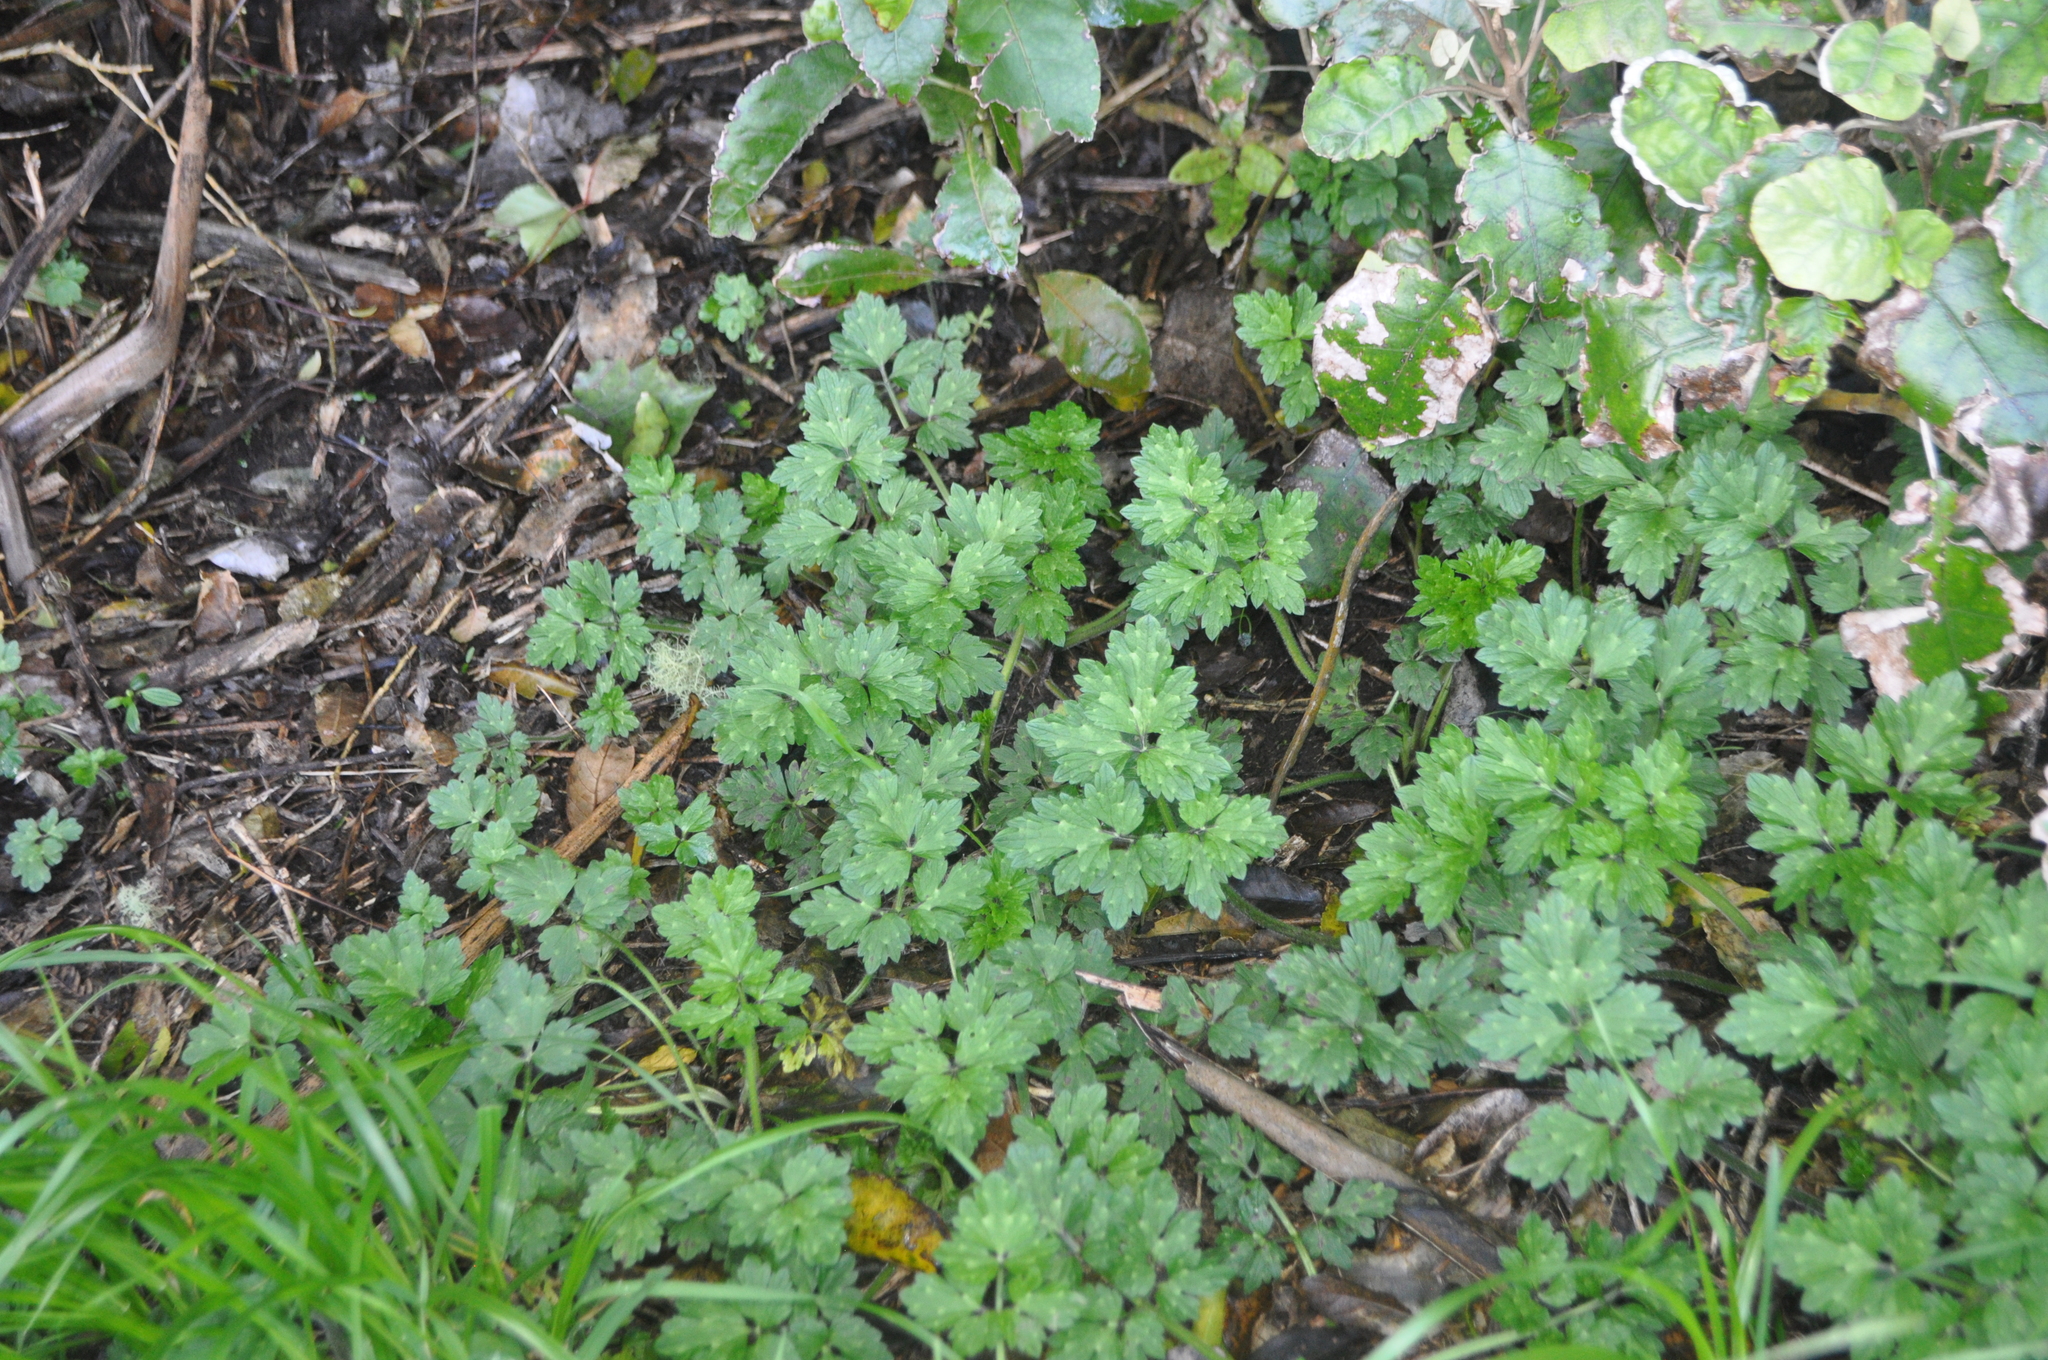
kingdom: Plantae
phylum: Tracheophyta
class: Magnoliopsida
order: Ranunculales
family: Ranunculaceae
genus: Ranunculus
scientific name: Ranunculus repens
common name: Creeping buttercup
